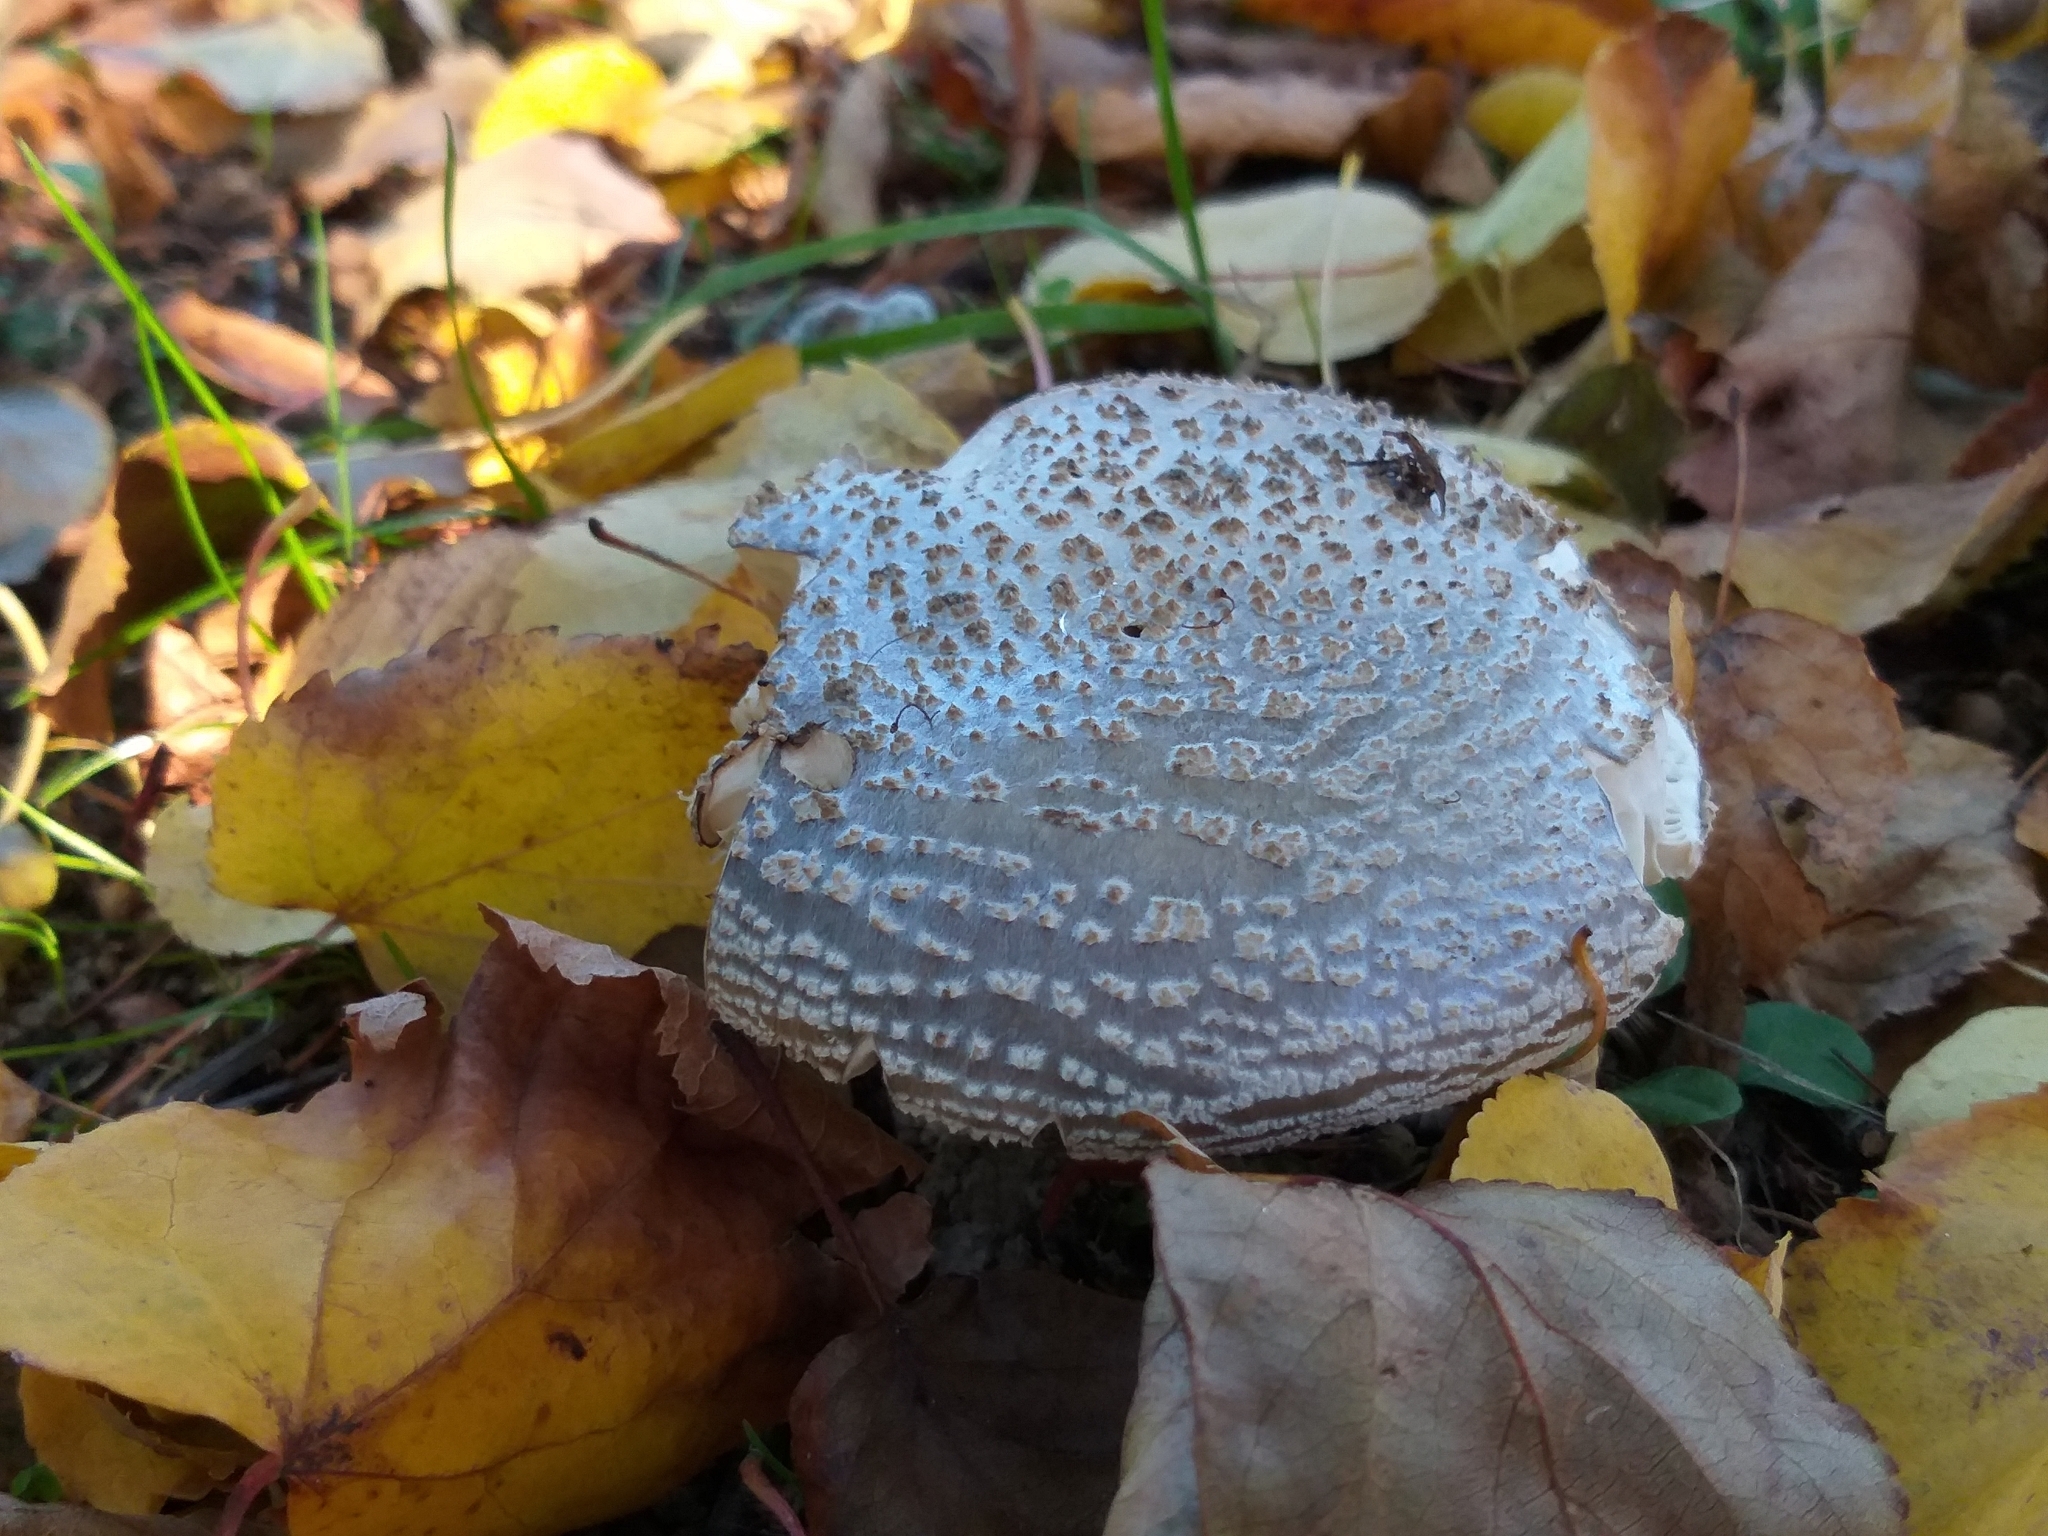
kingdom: Fungi
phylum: Basidiomycota
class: Agaricomycetes
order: Agaricales
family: Amanitaceae
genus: Amanita
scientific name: Amanita excelsa
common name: European false blusher
